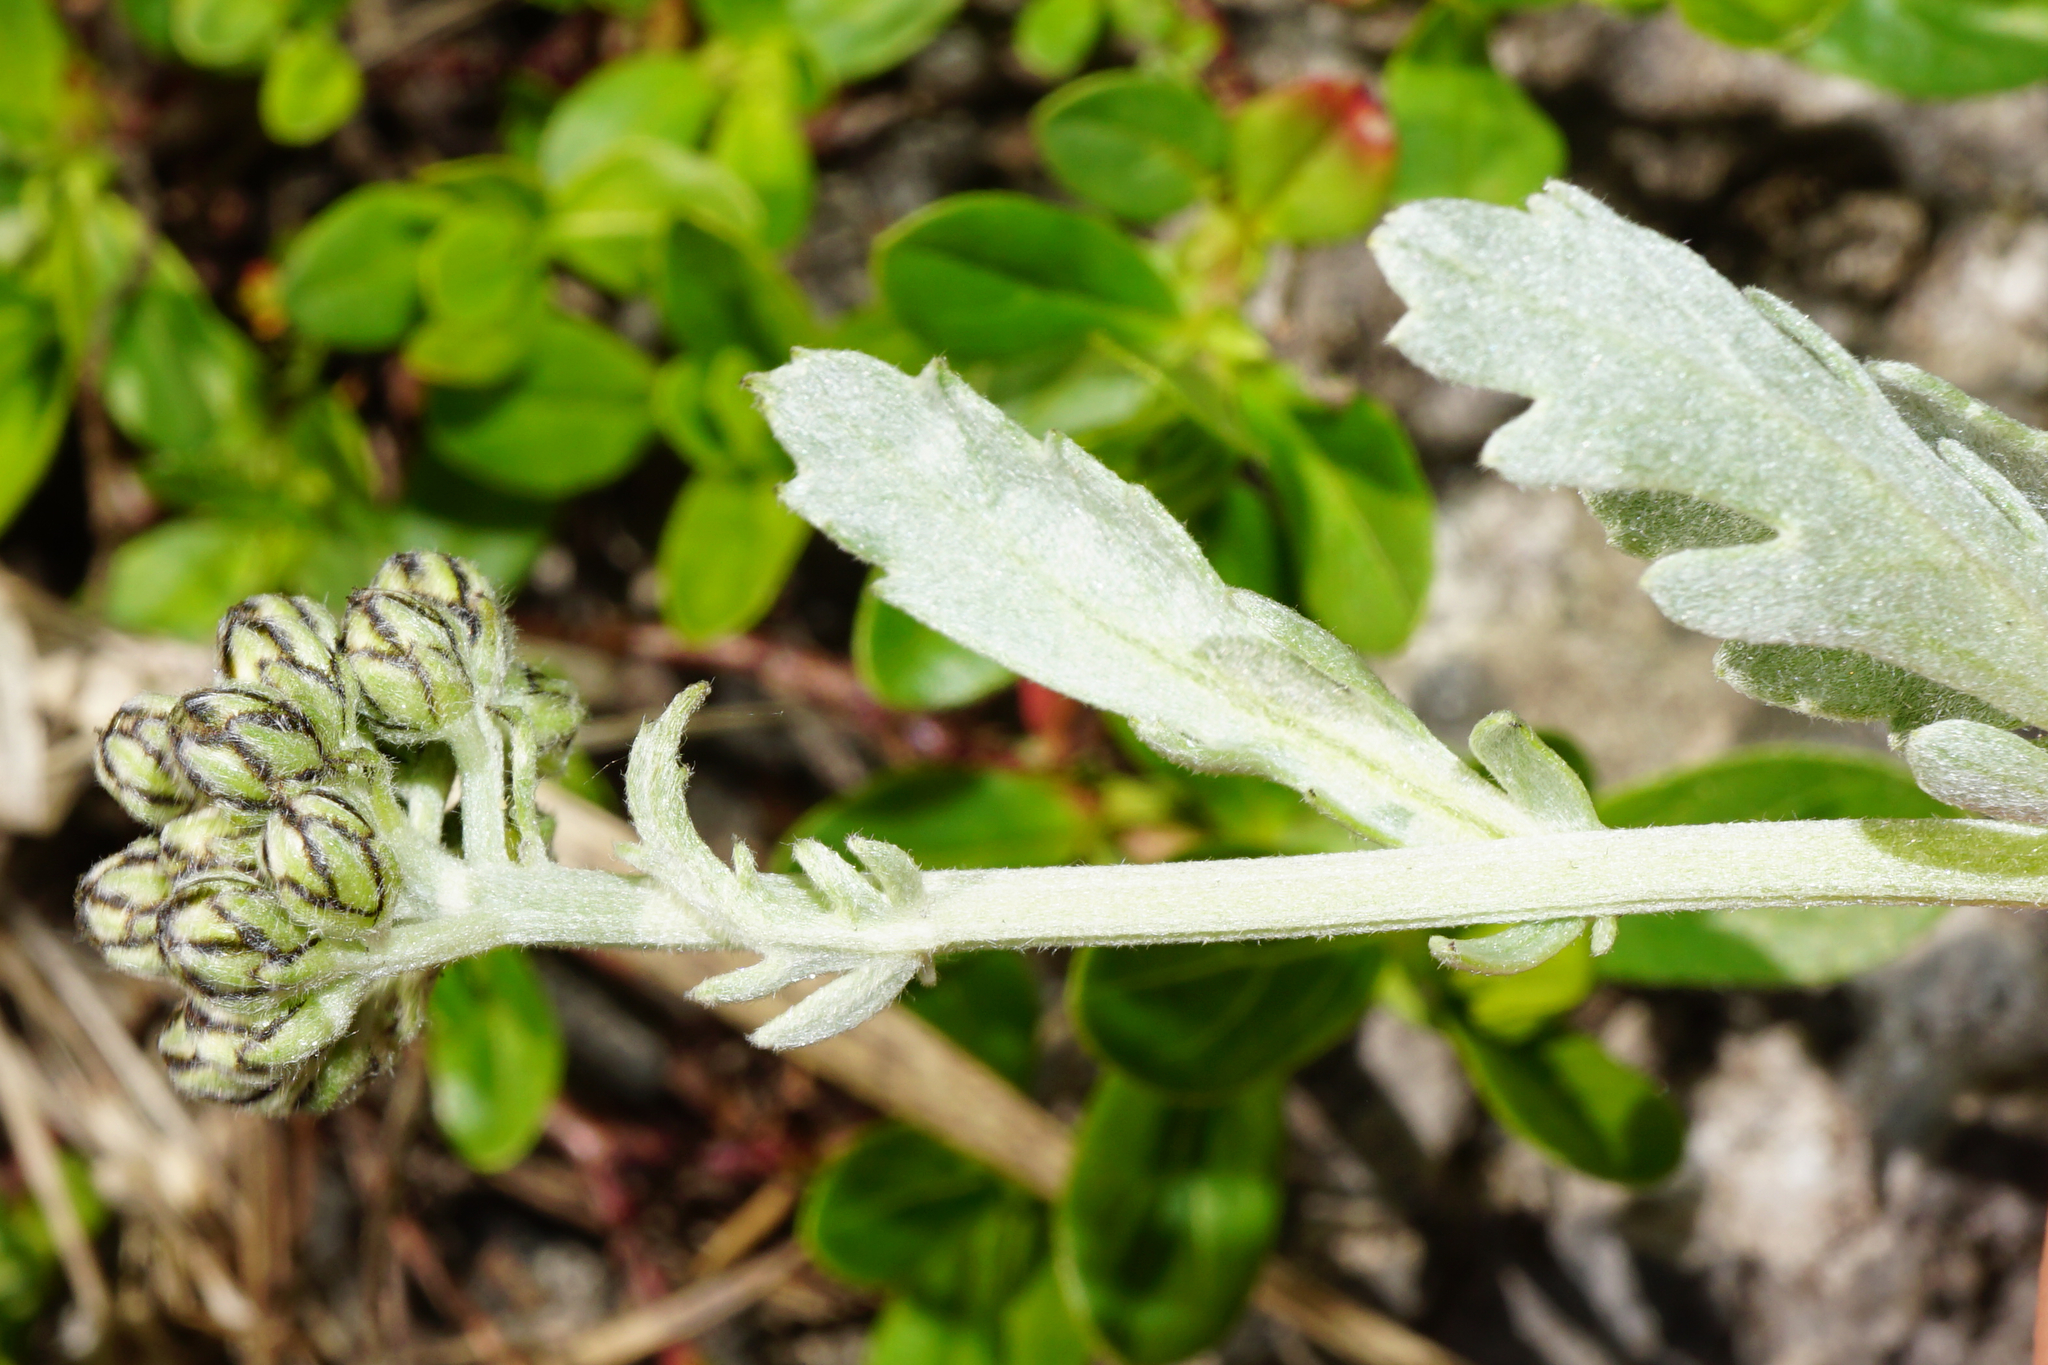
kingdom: Plantae
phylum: Tracheophyta
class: Magnoliopsida
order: Asterales
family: Asteraceae
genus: Achillea
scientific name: Achillea clavennae
